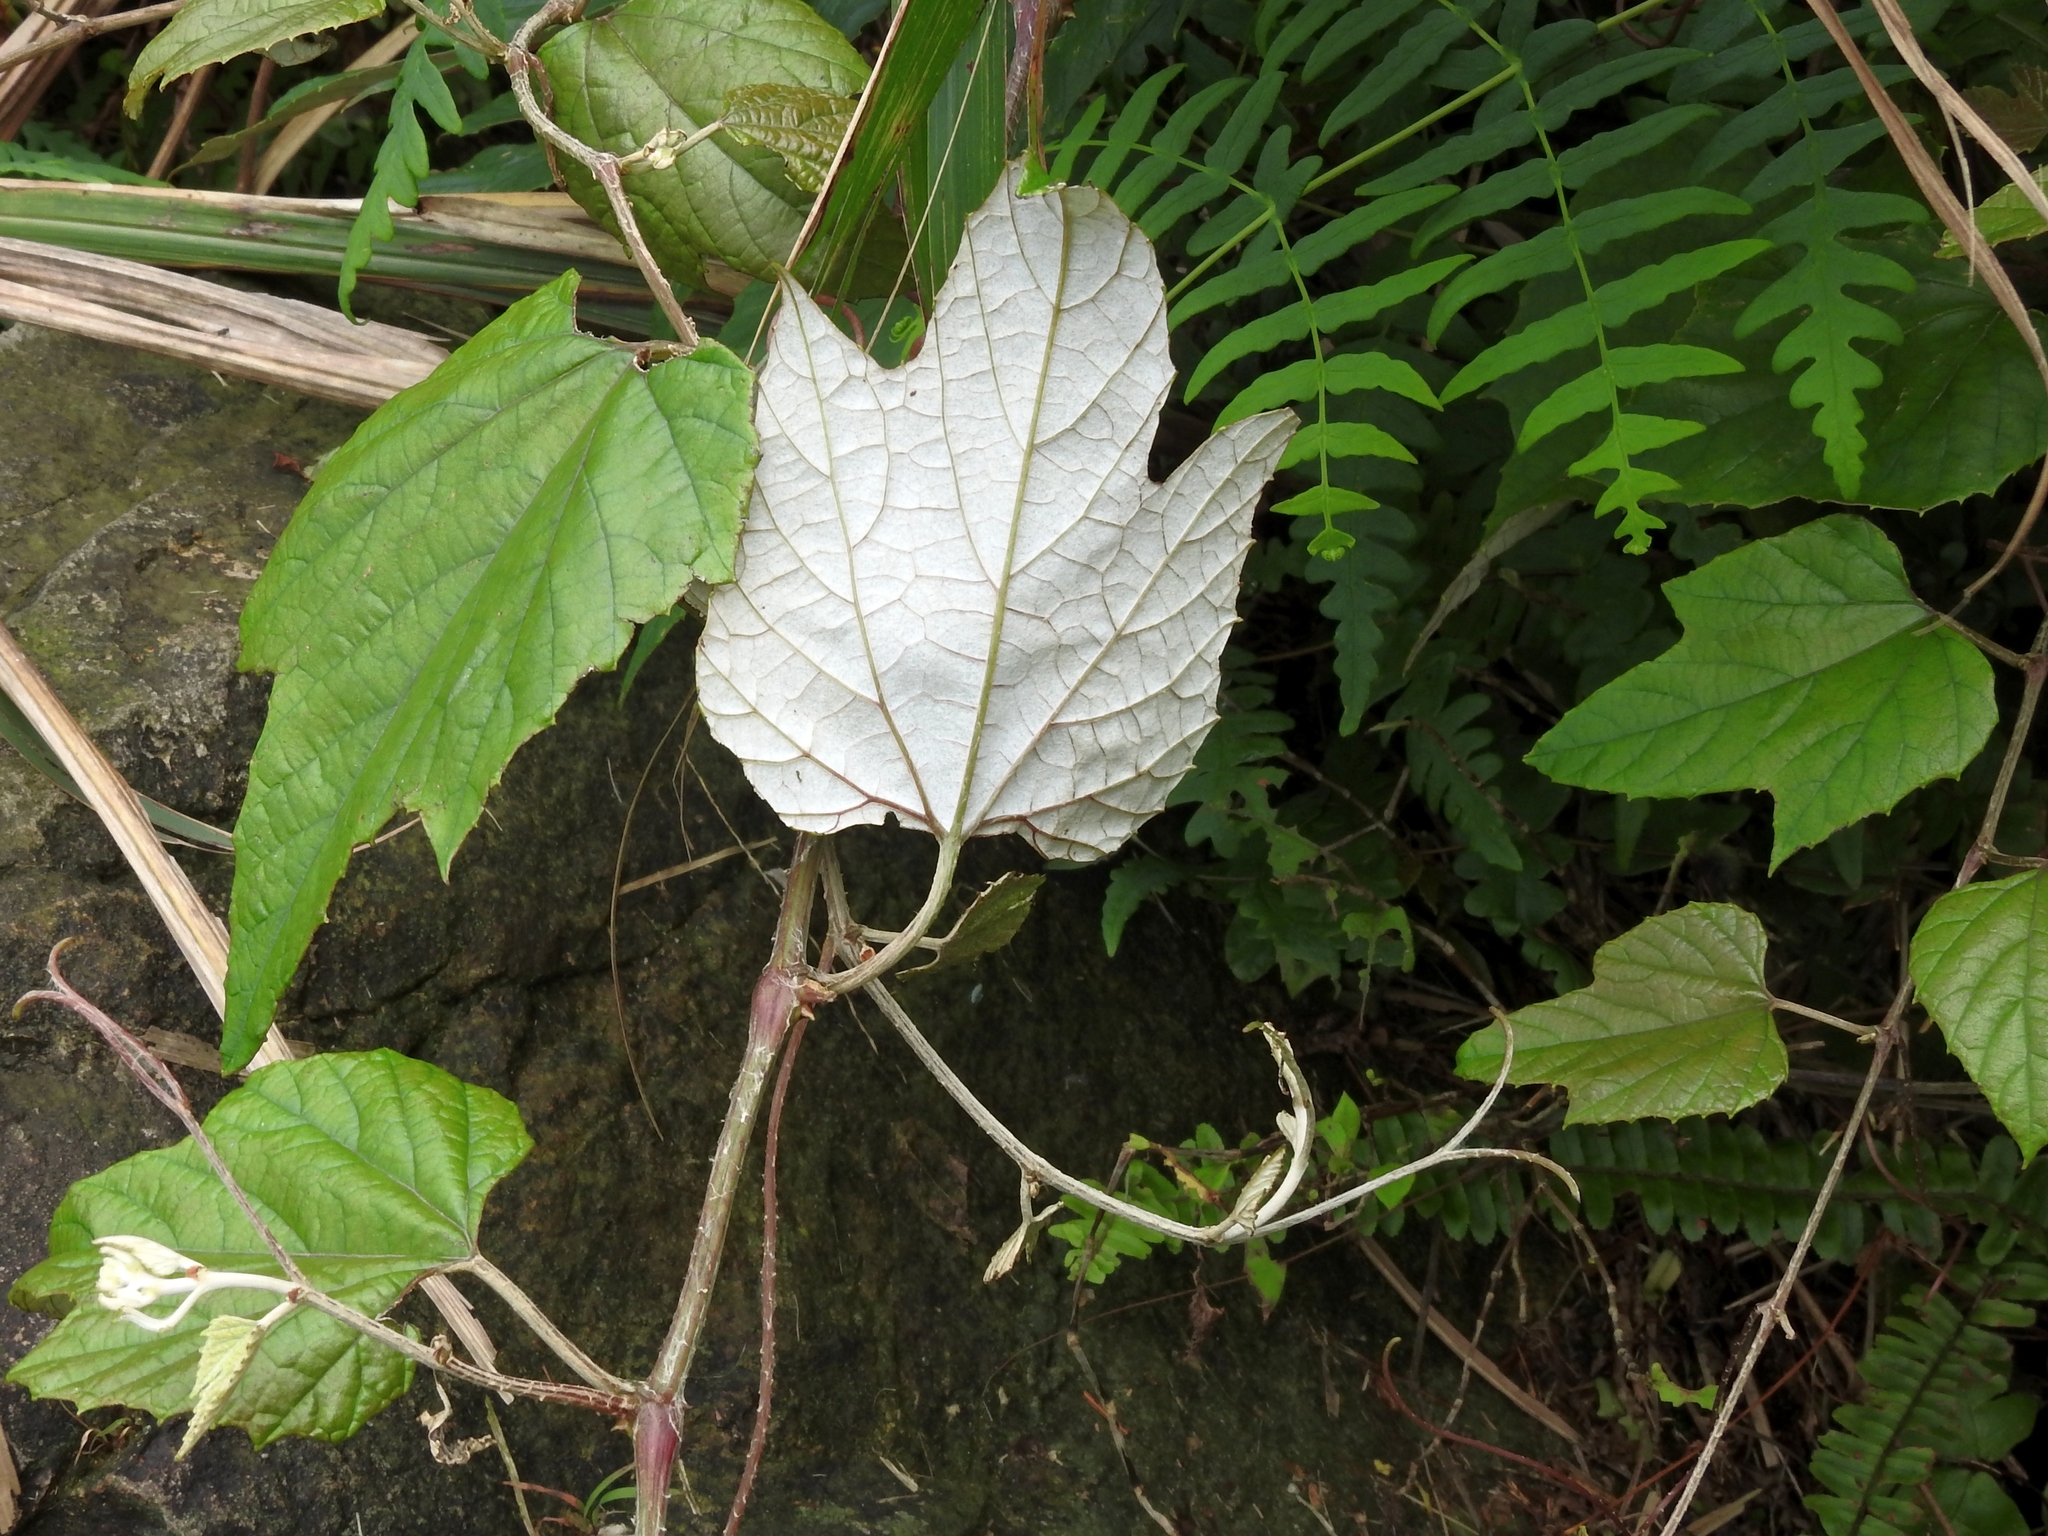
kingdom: Plantae
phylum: Tracheophyta
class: Magnoliopsida
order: Vitales
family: Vitaceae
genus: Vitis
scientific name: Vitis heyneana
